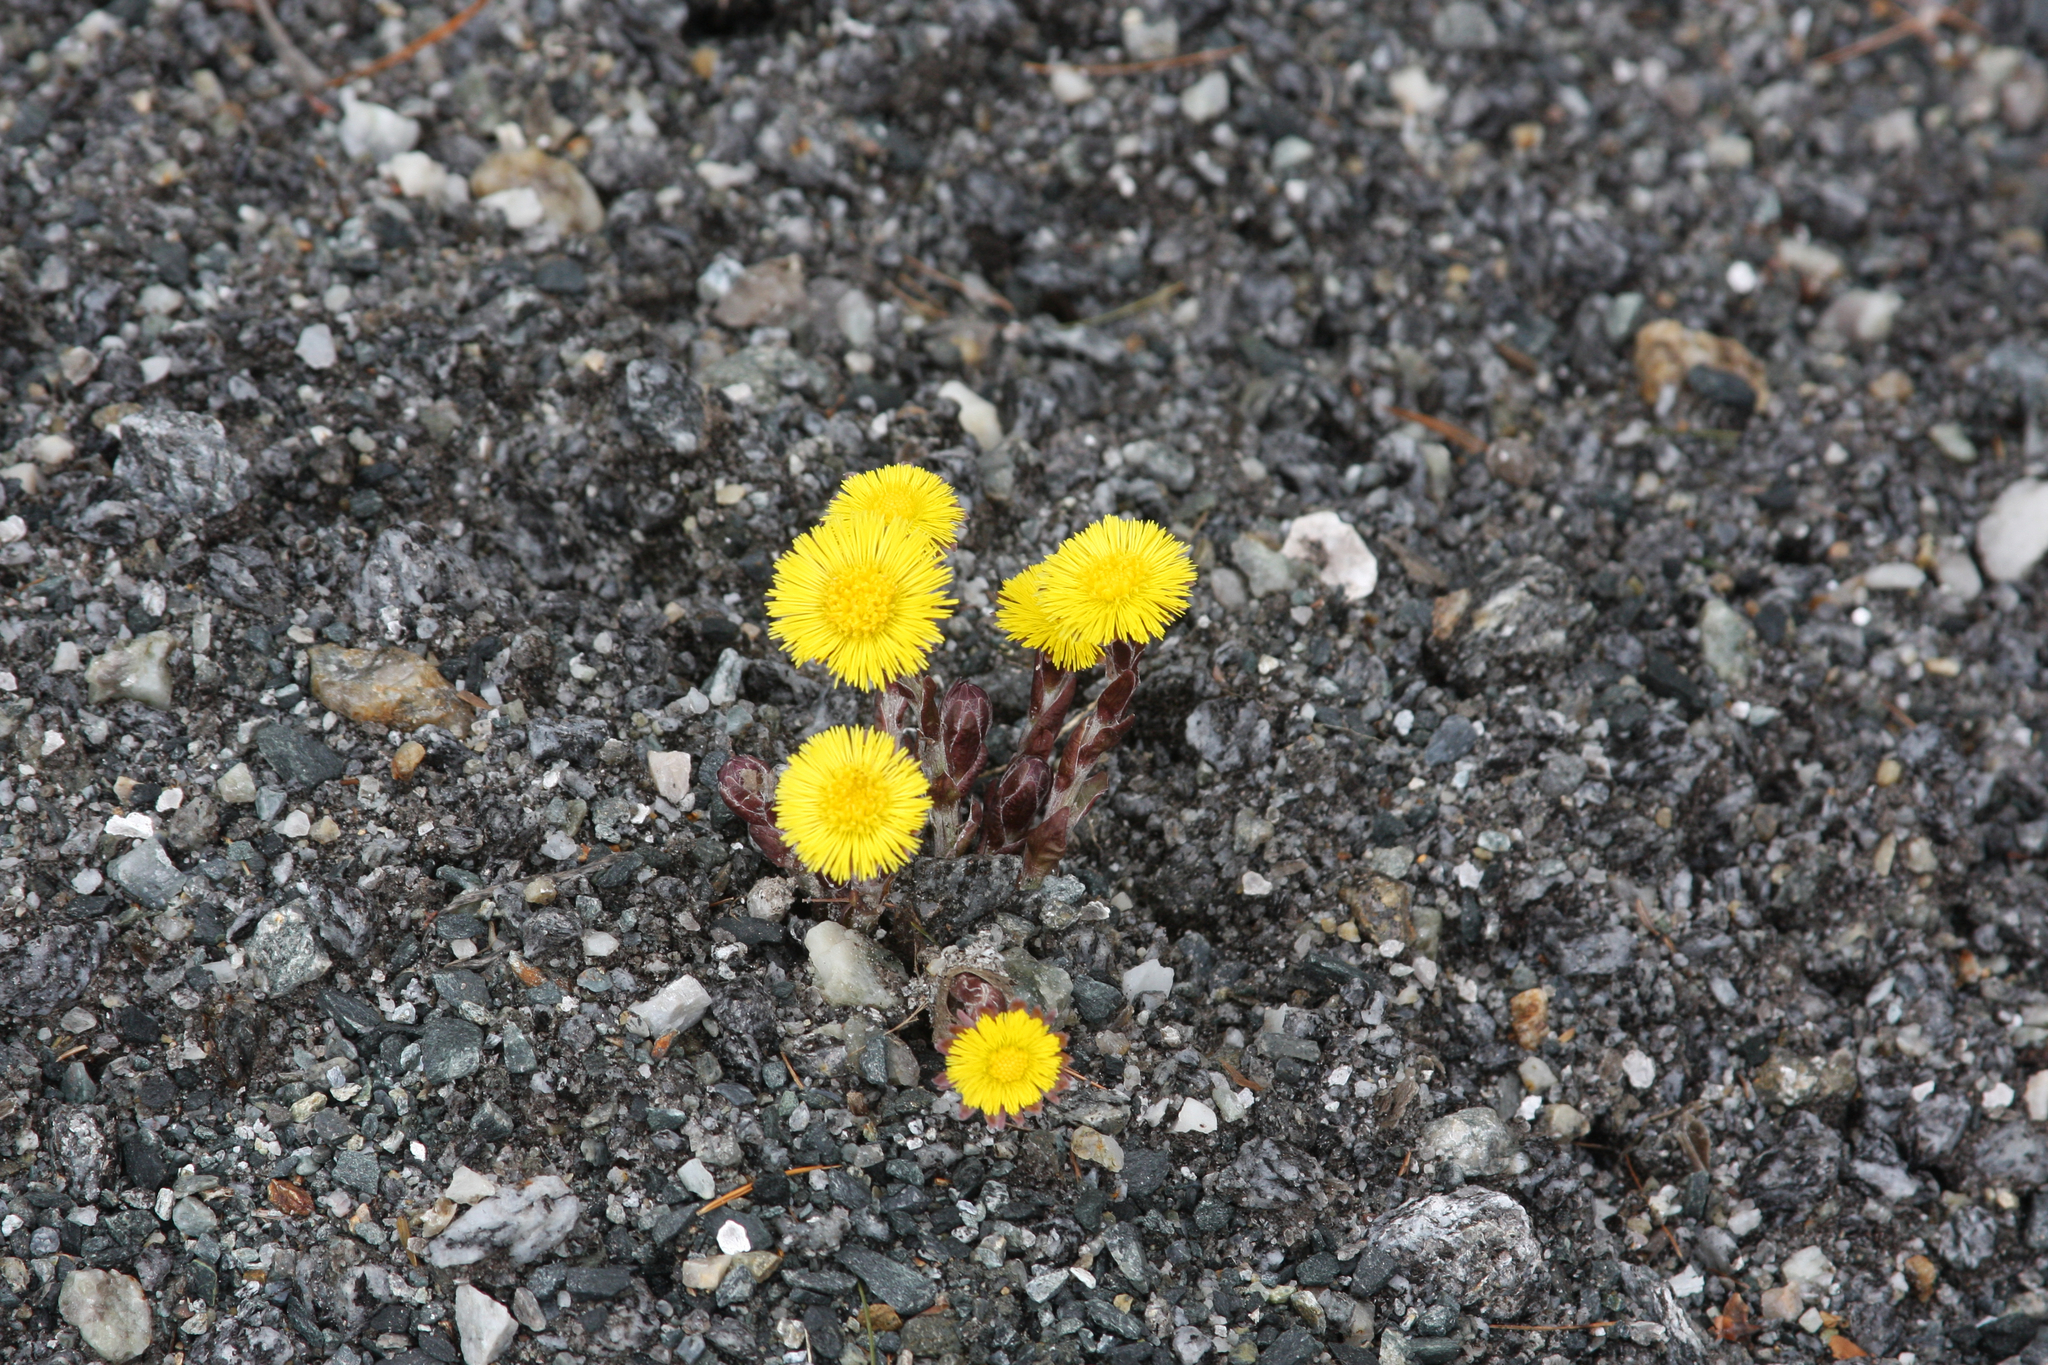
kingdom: Plantae
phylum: Tracheophyta
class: Magnoliopsida
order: Asterales
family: Asteraceae
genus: Tussilago
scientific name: Tussilago farfara
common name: Coltsfoot
